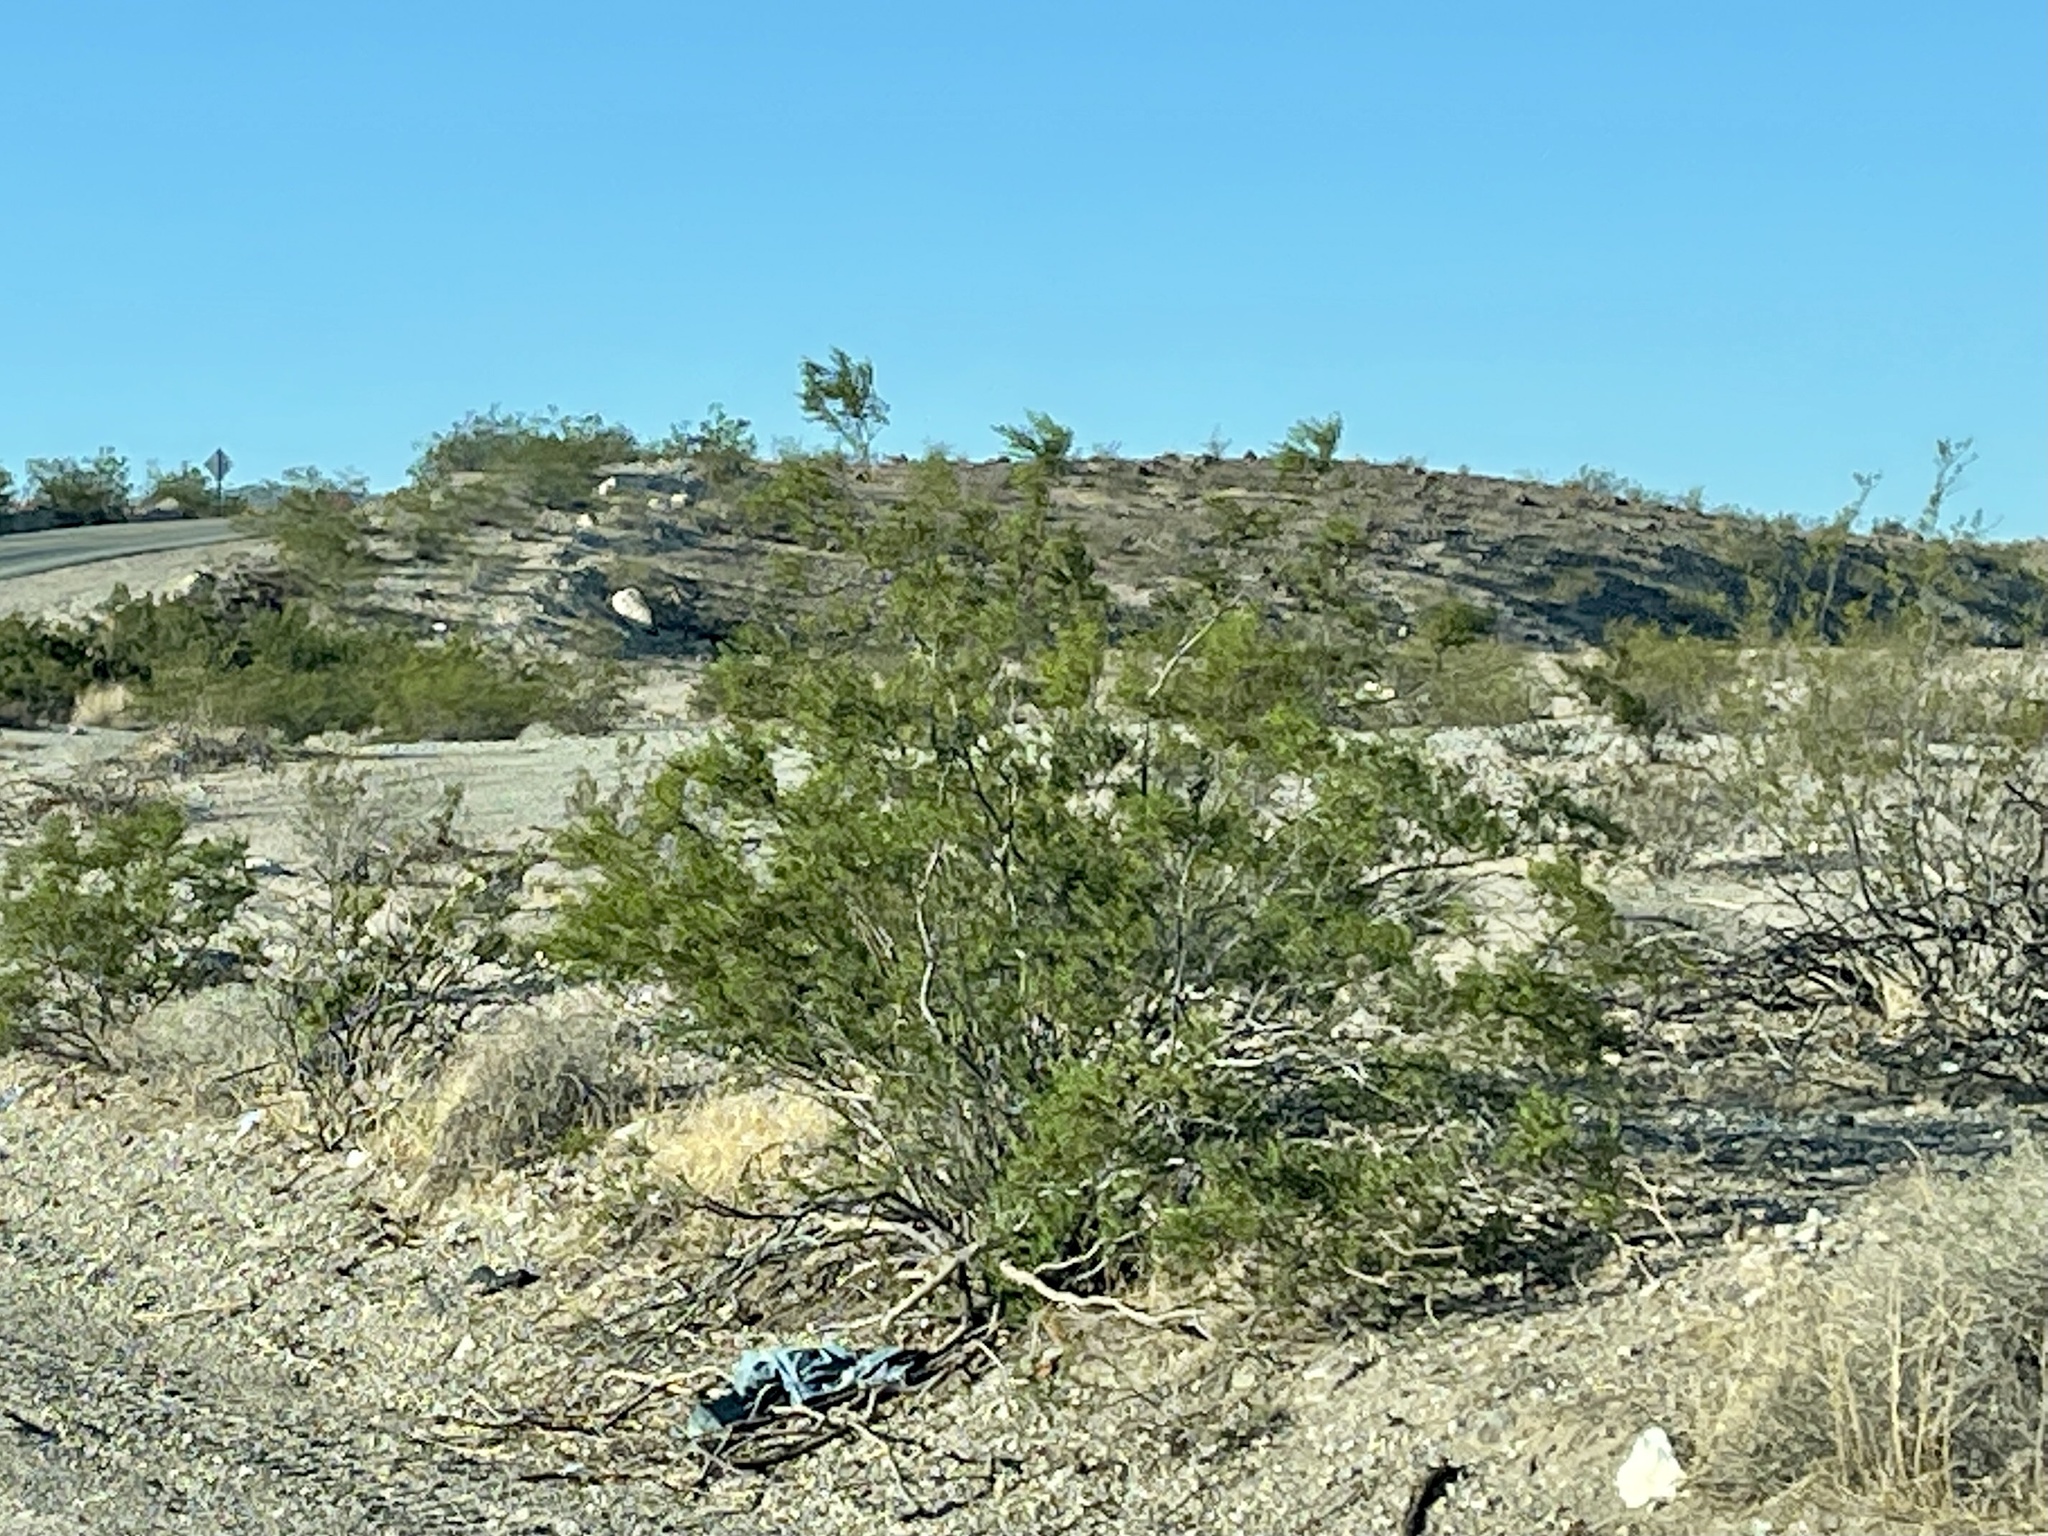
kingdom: Plantae
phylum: Tracheophyta
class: Magnoliopsida
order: Zygophyllales
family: Zygophyllaceae
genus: Larrea
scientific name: Larrea tridentata
